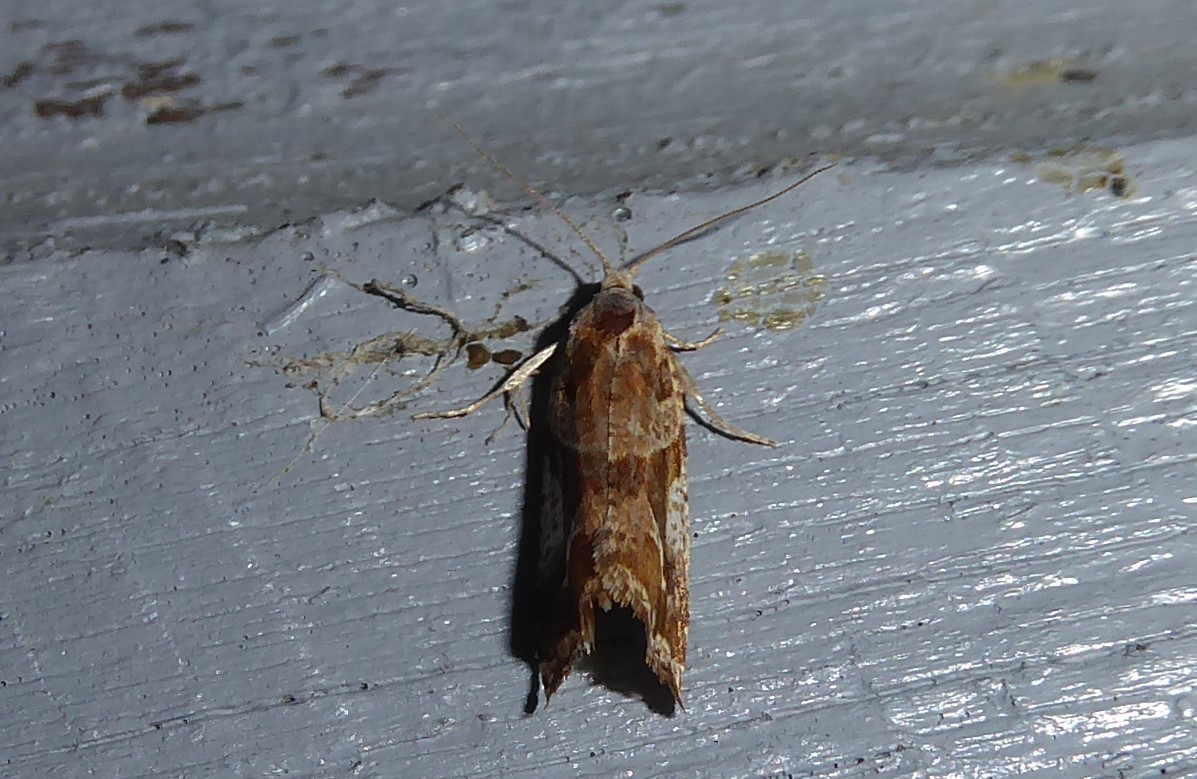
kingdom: Animalia
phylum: Arthropoda
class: Insecta
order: Lepidoptera
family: Tortricidae
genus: Pyrgotis
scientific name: Pyrgotis plagiatana
